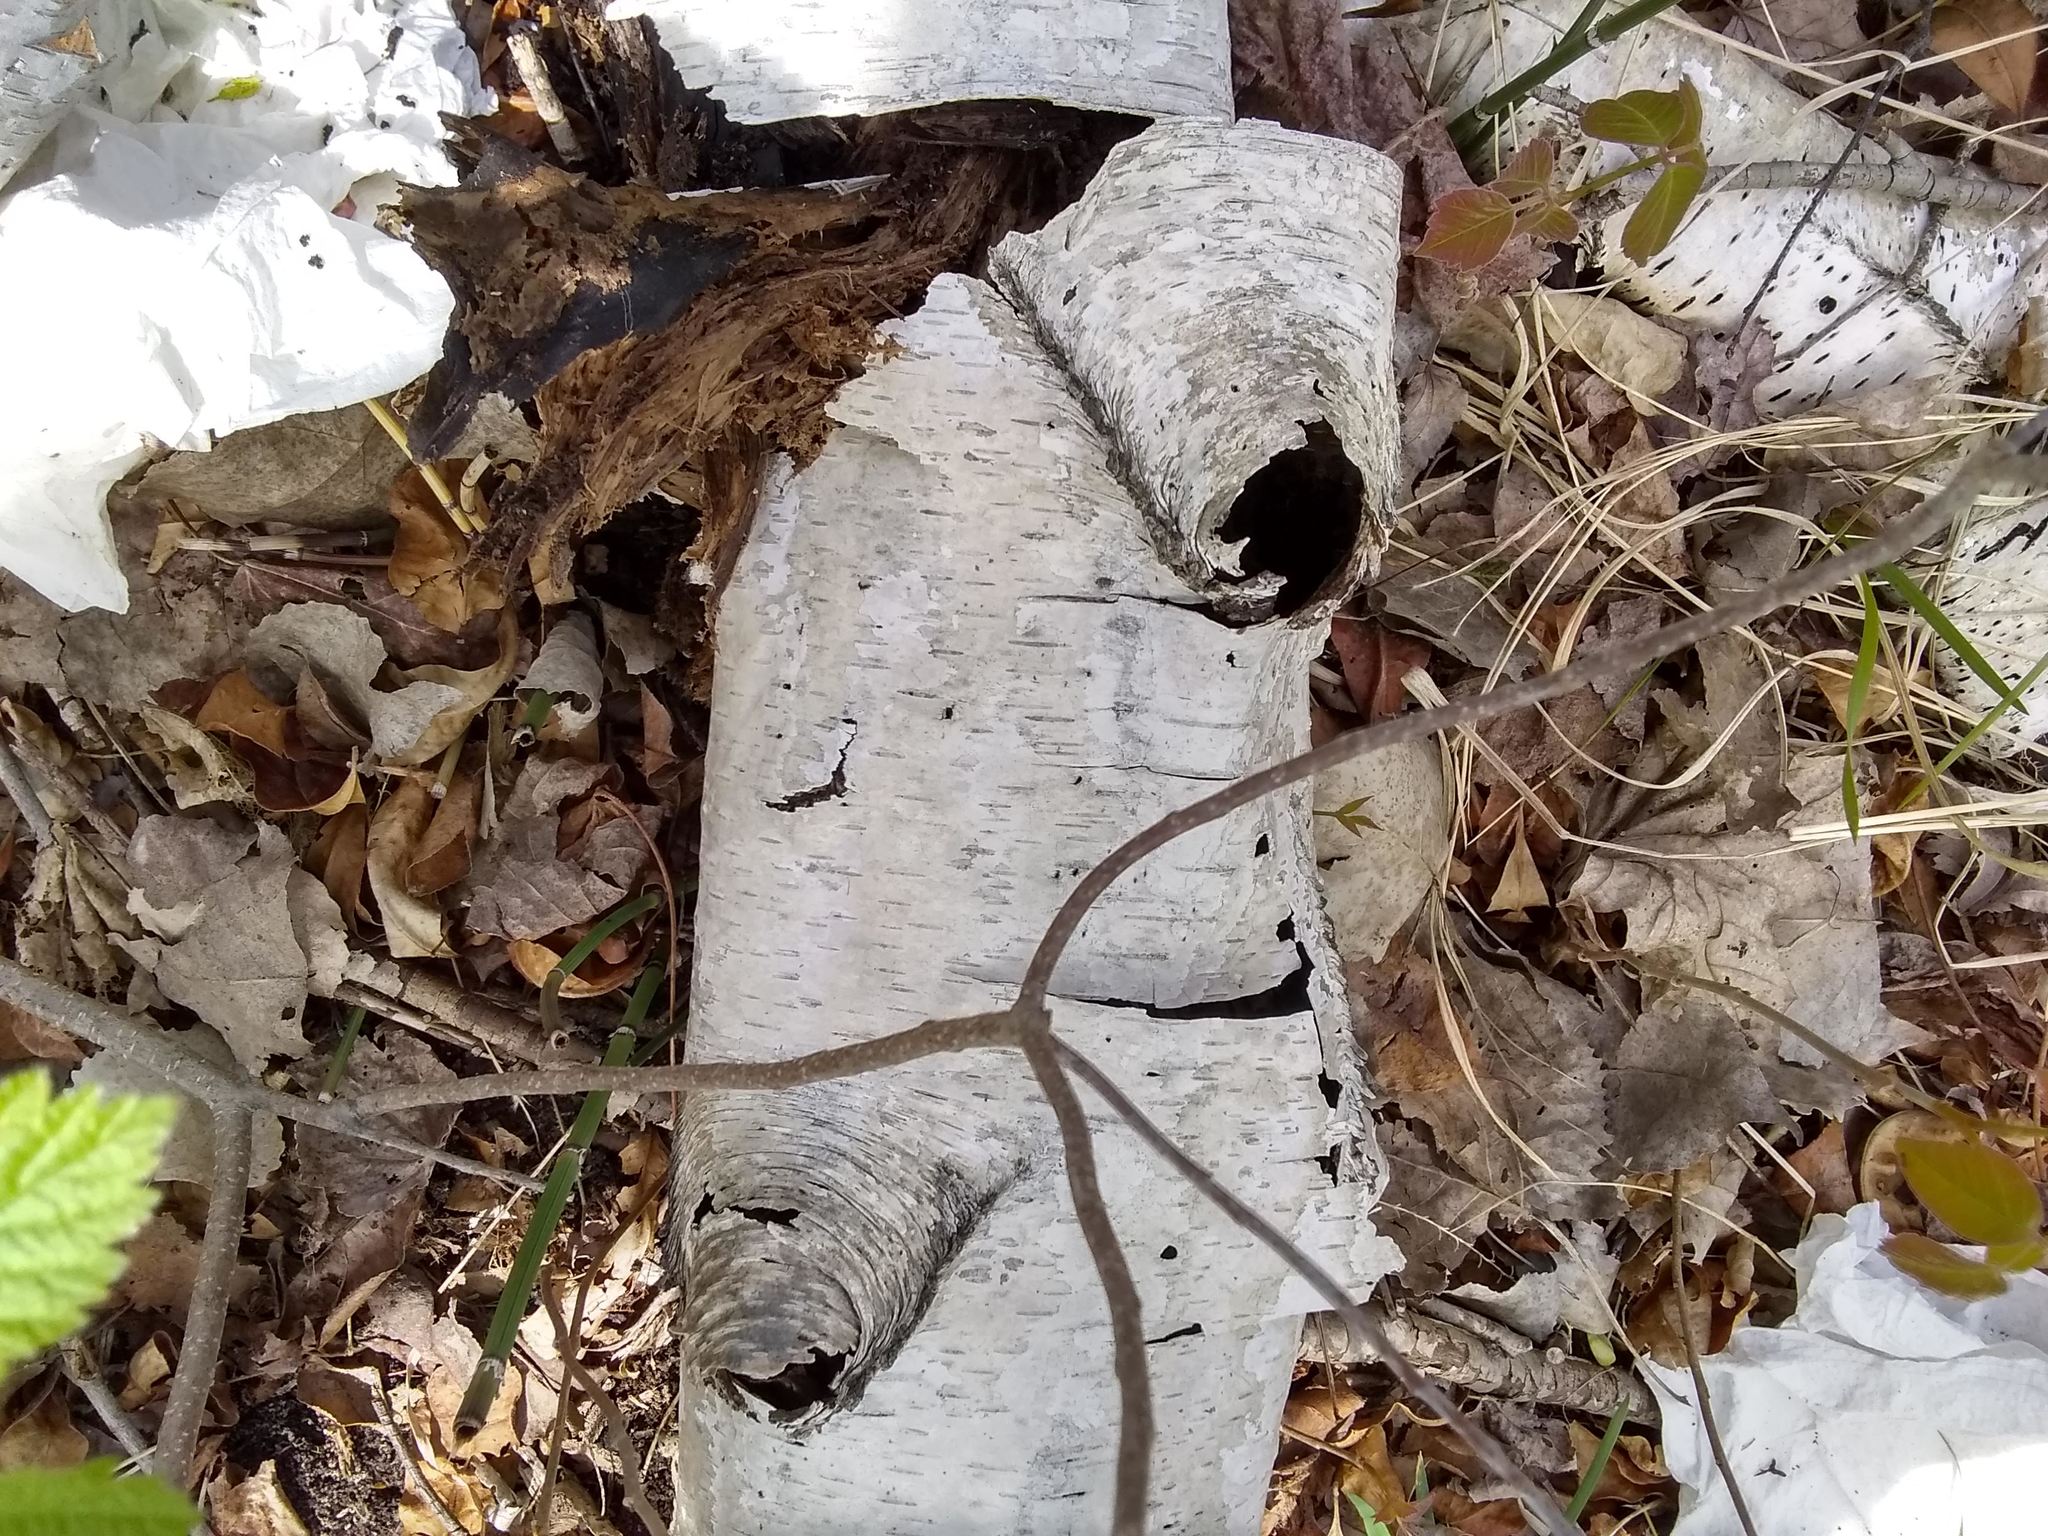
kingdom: Plantae
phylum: Tracheophyta
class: Magnoliopsida
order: Fagales
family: Betulaceae
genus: Betula
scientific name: Betula populifolia
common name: Fire birch
